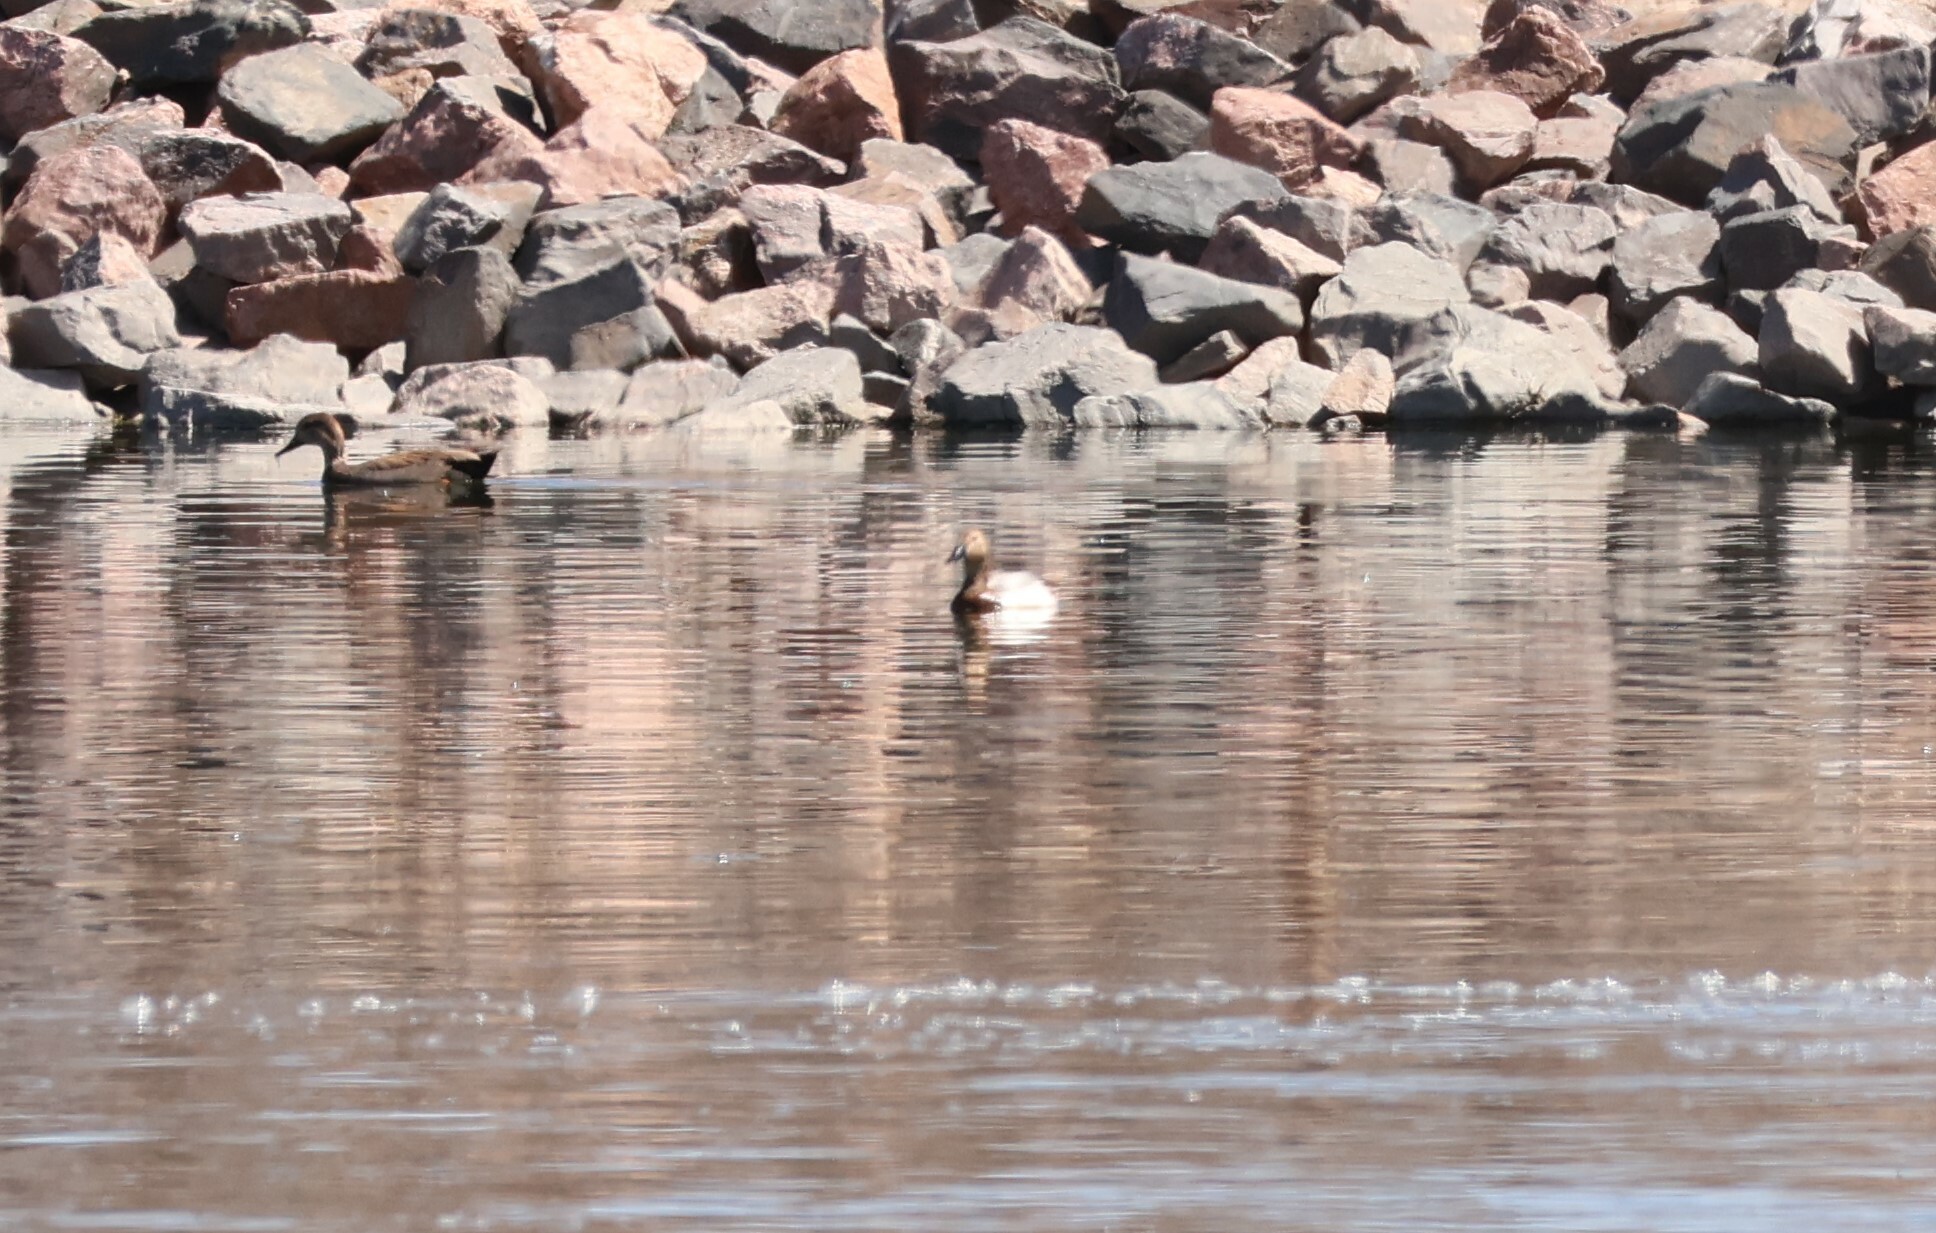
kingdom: Animalia
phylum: Chordata
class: Aves
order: Anseriformes
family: Anatidae
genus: Aythya
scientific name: Aythya valisineria
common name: Canvasback
